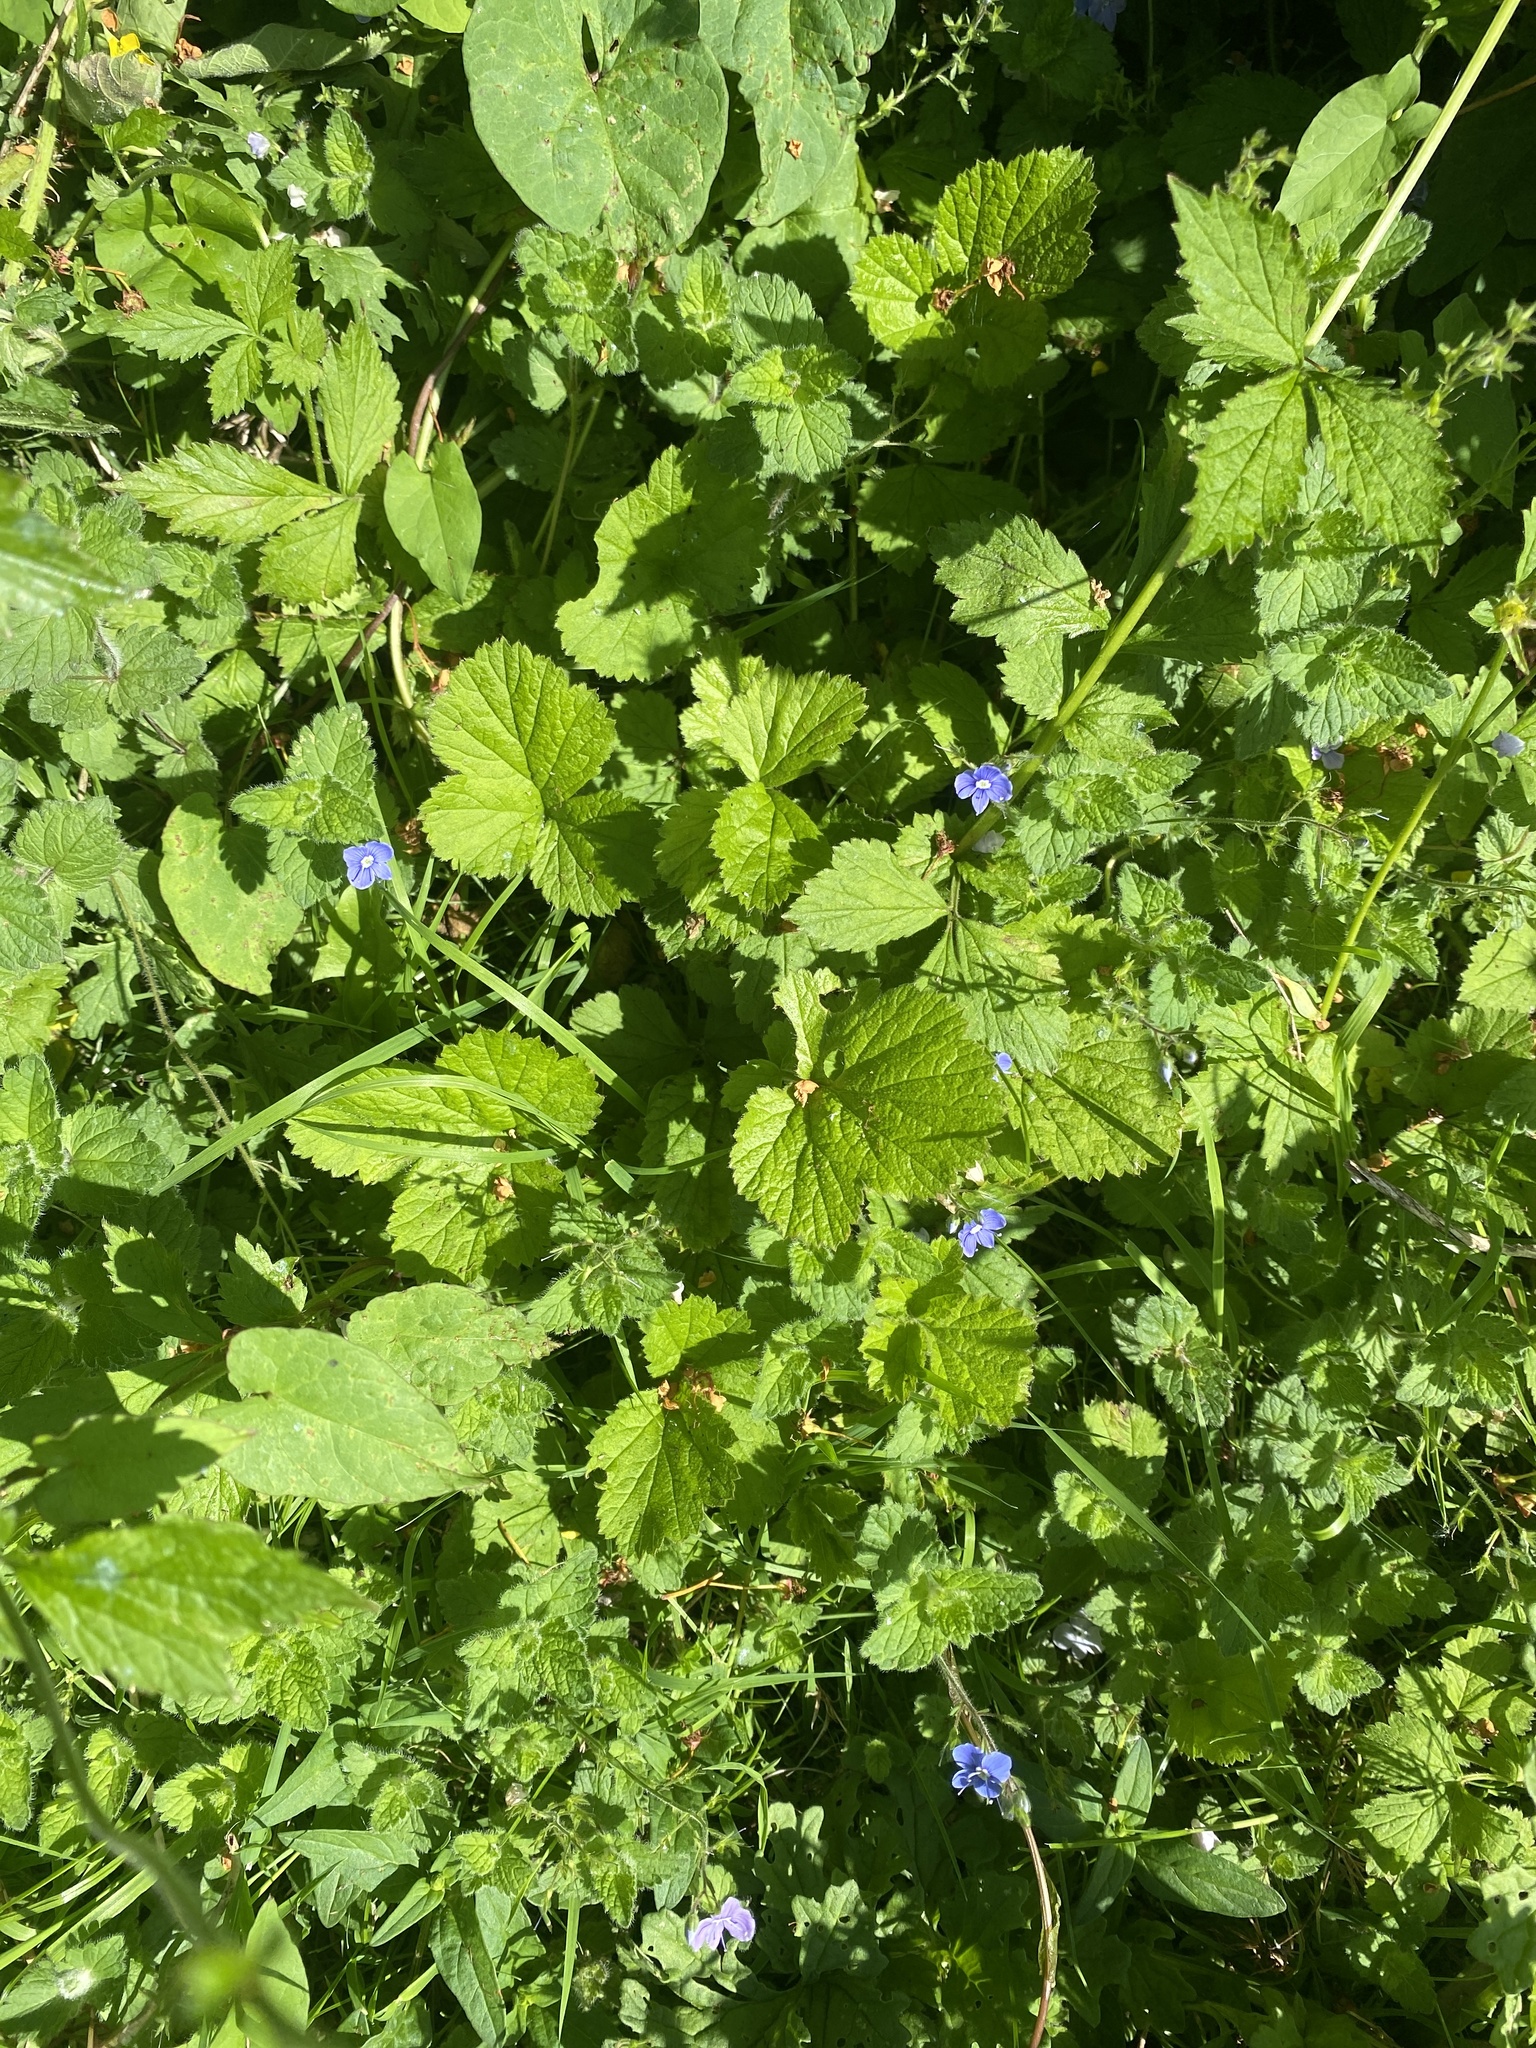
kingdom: Plantae
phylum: Tracheophyta
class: Magnoliopsida
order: Lamiales
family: Plantaginaceae
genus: Veronica
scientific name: Veronica chamaedrys
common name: Germander speedwell
